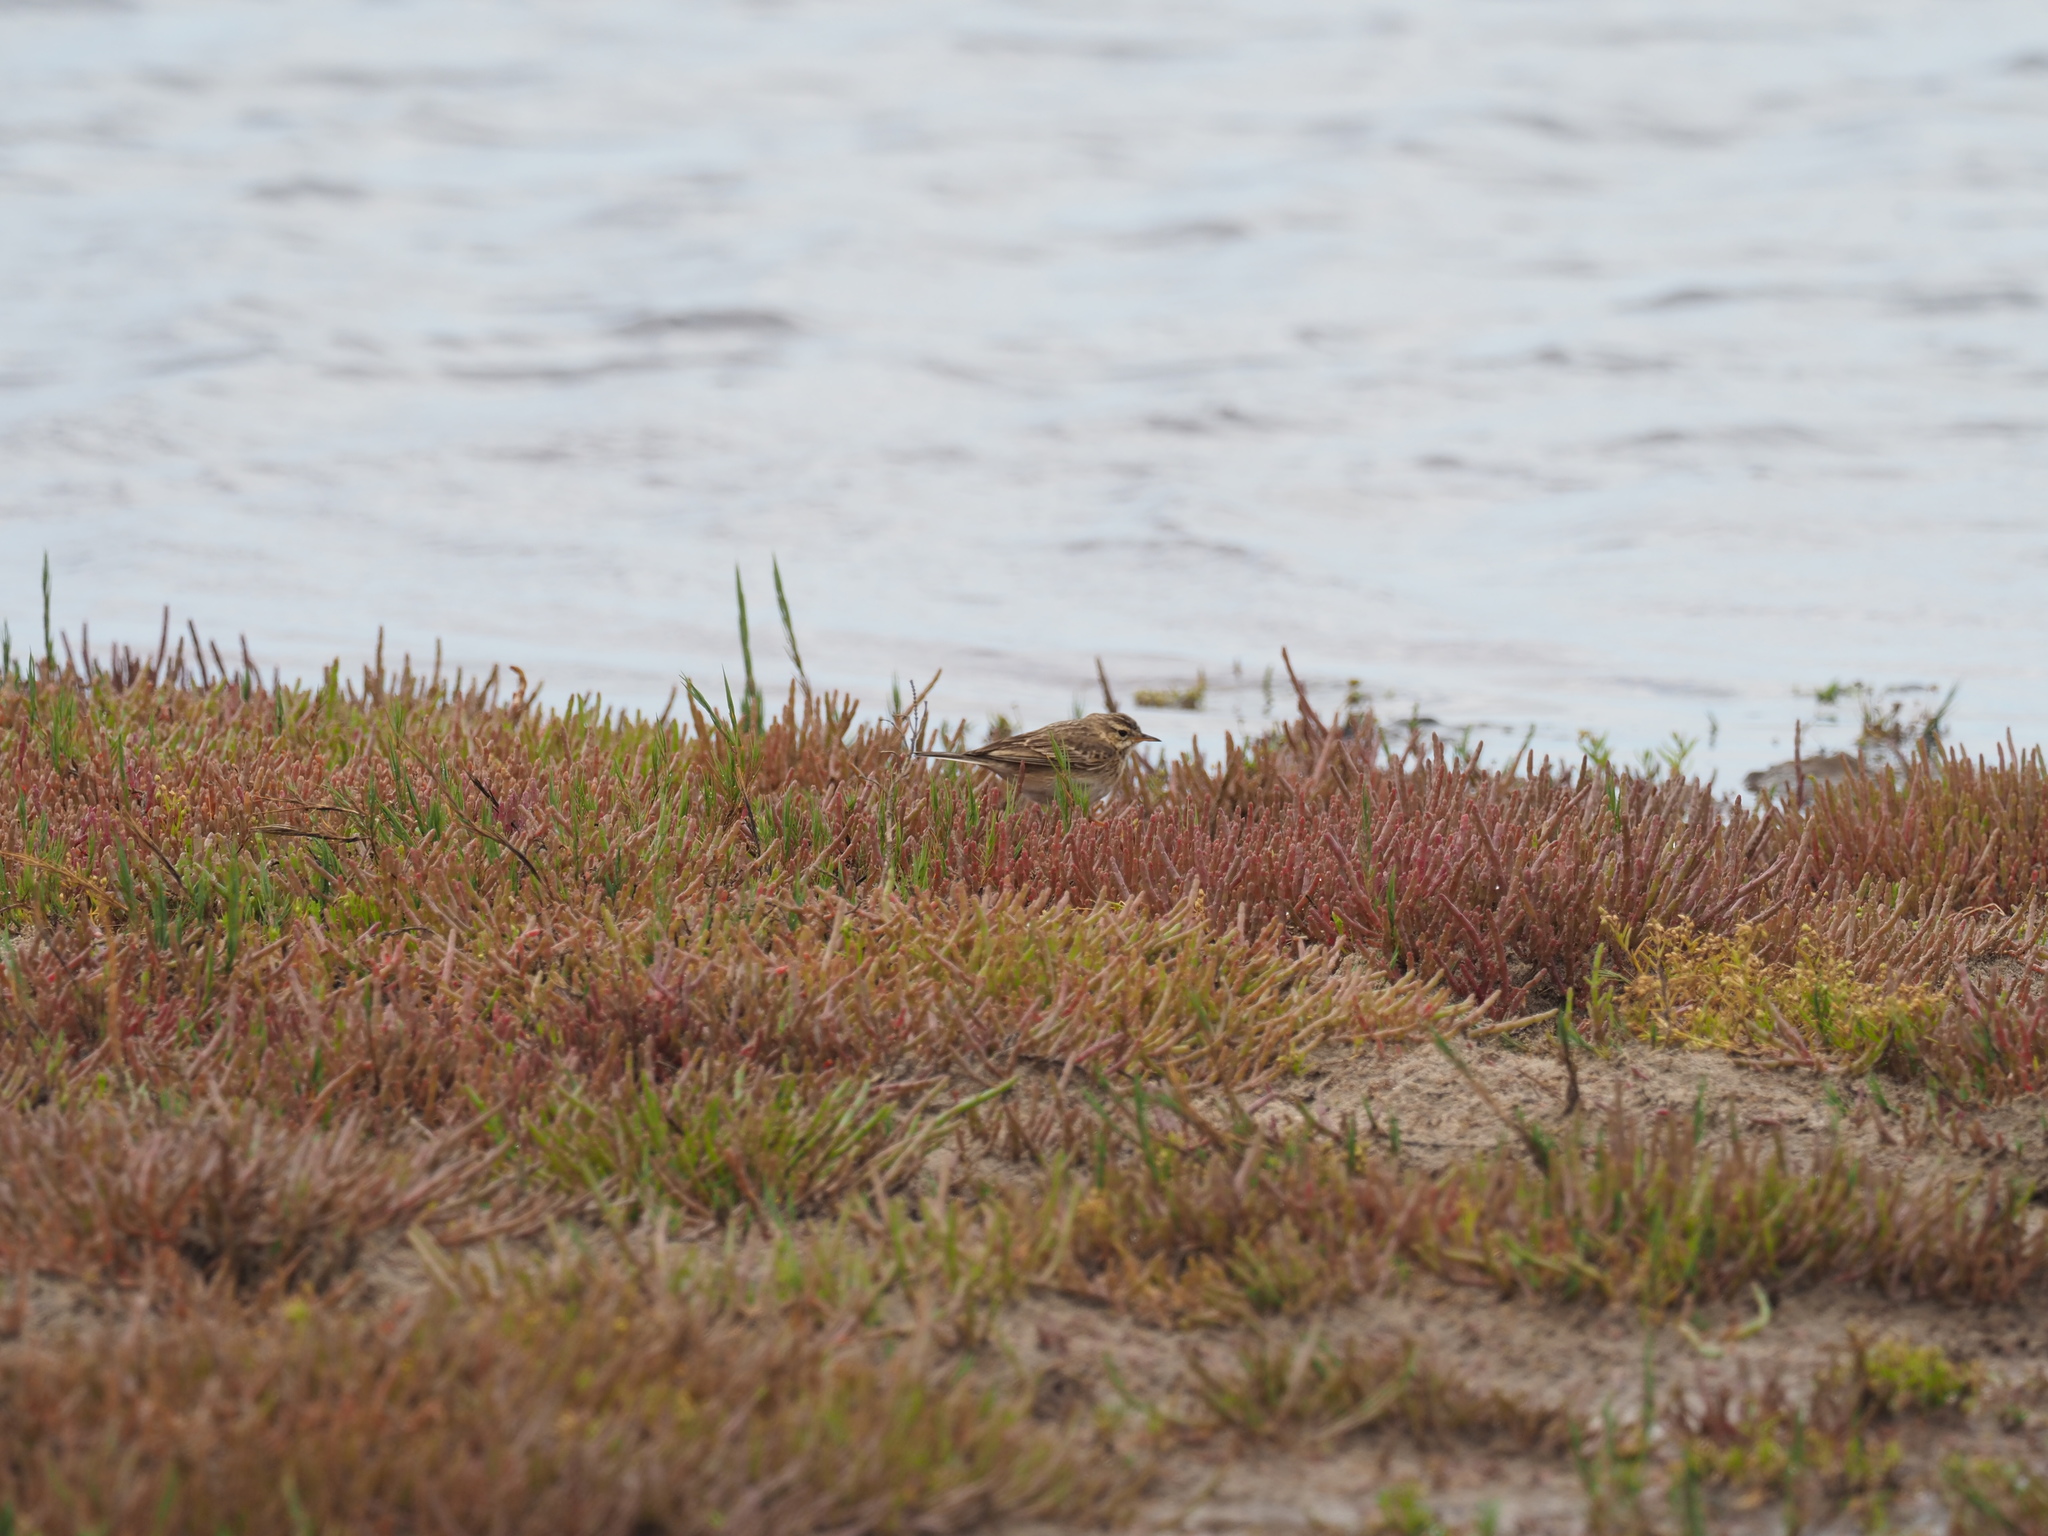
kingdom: Animalia
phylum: Chordata
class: Aves
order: Passeriformes
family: Motacillidae
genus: Anthus
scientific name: Anthus cinnamomeus
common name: African pipit
